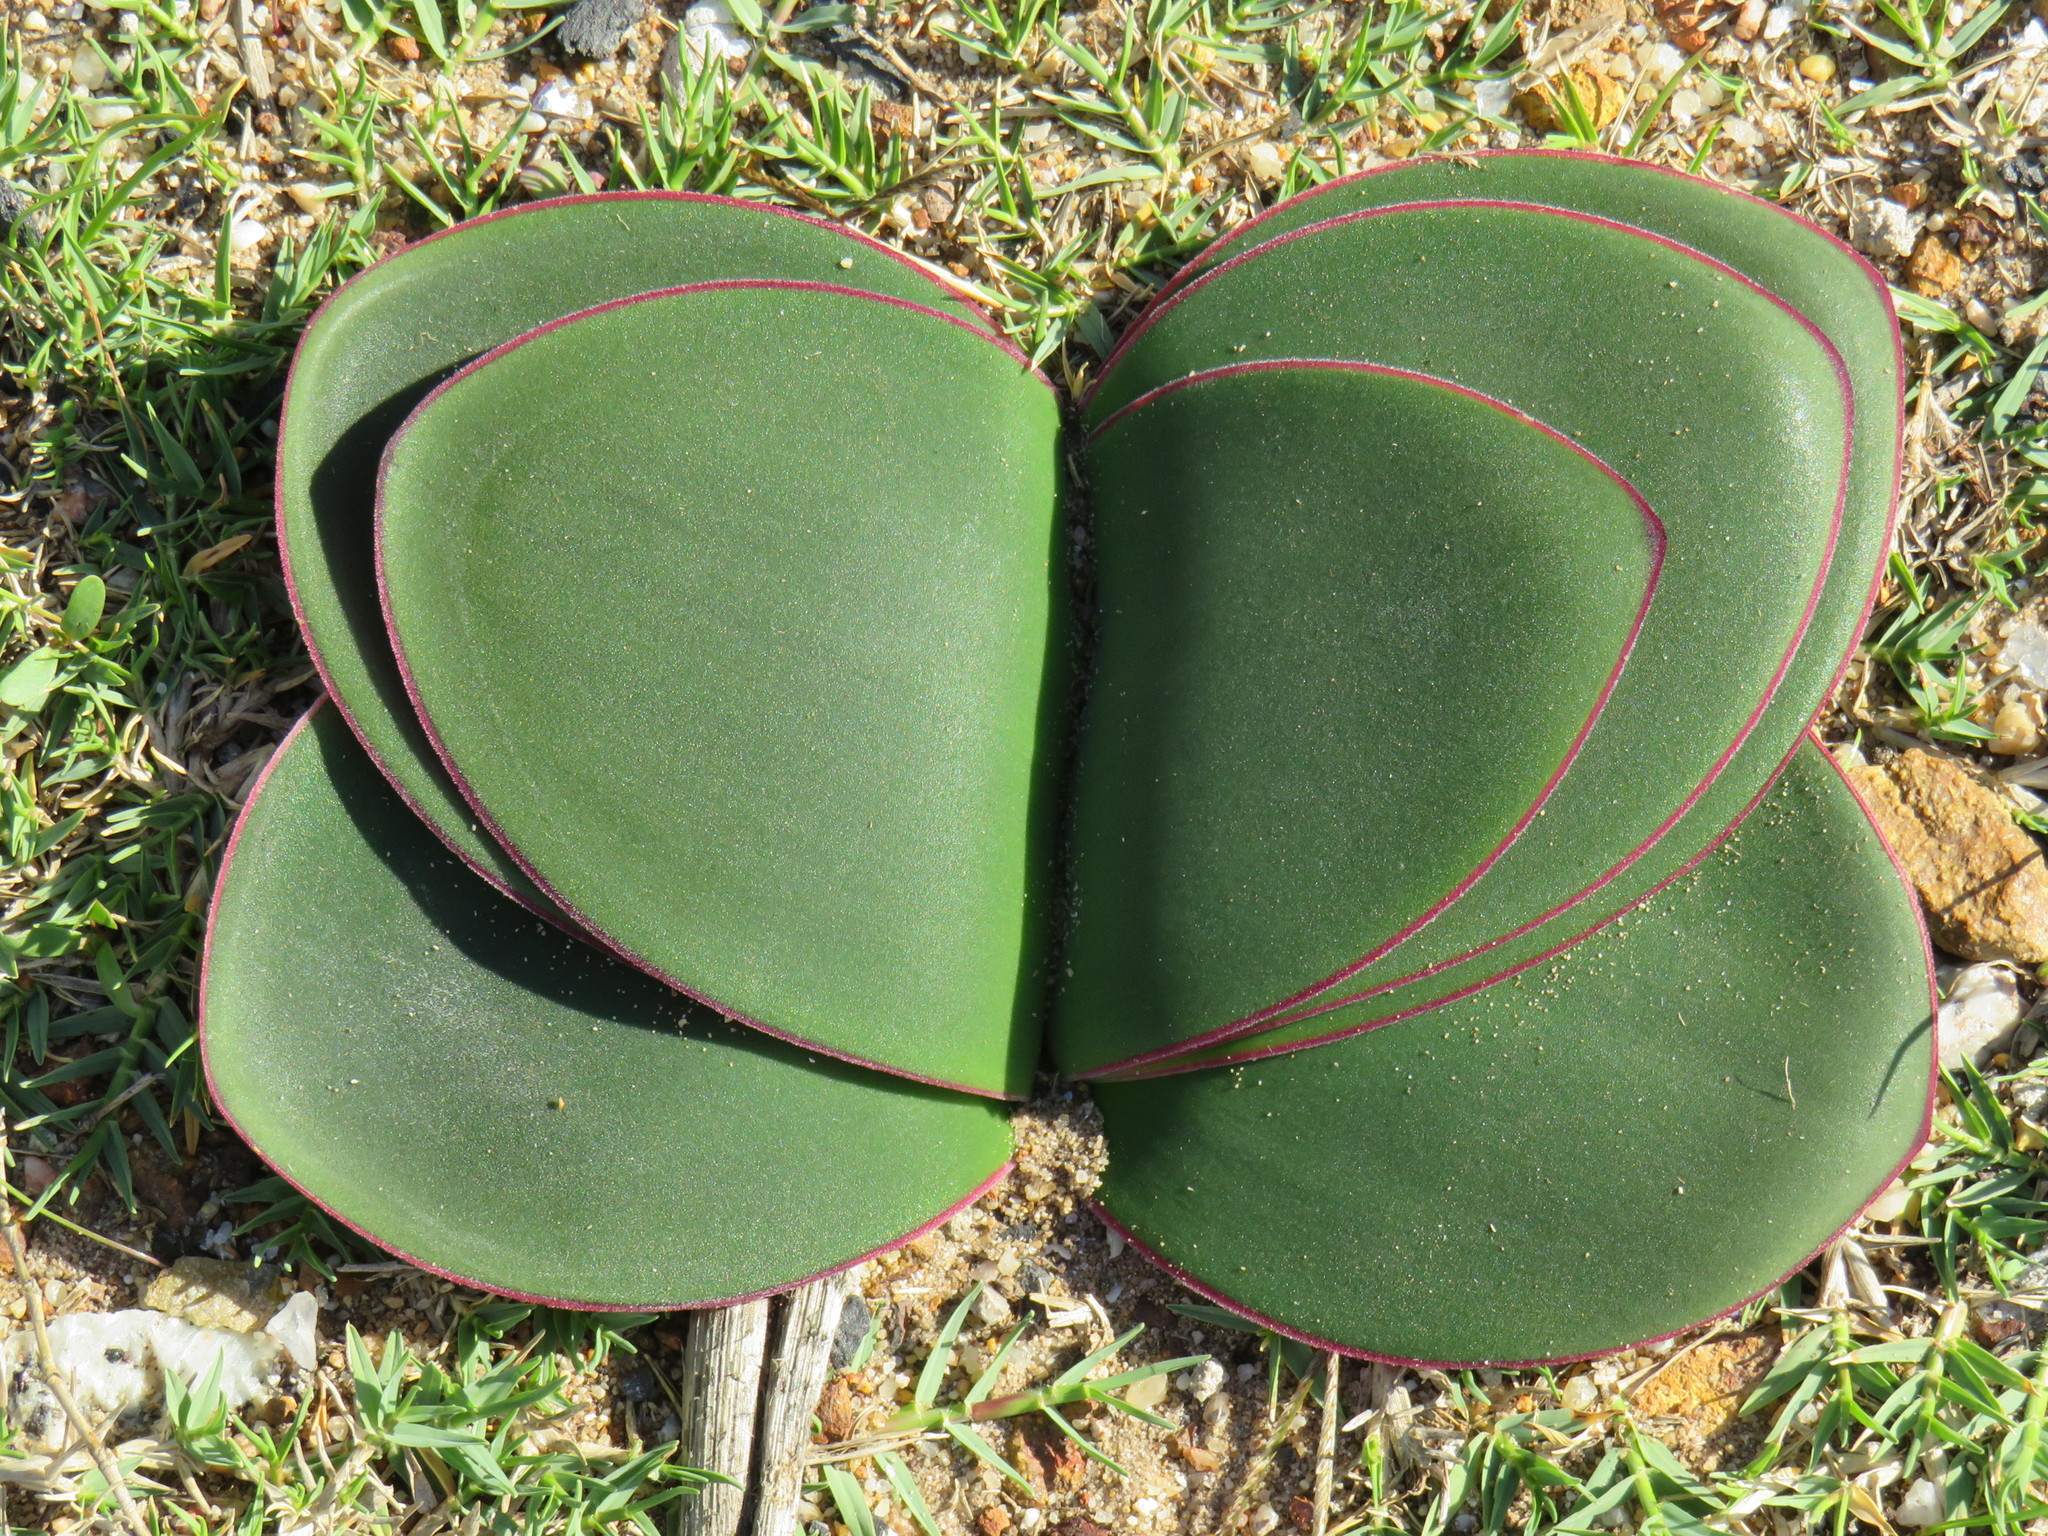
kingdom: Plantae
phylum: Tracheophyta
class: Liliopsida
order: Asparagales
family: Amaryllidaceae
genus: Brunsvigia
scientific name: Brunsvigia orientalis
